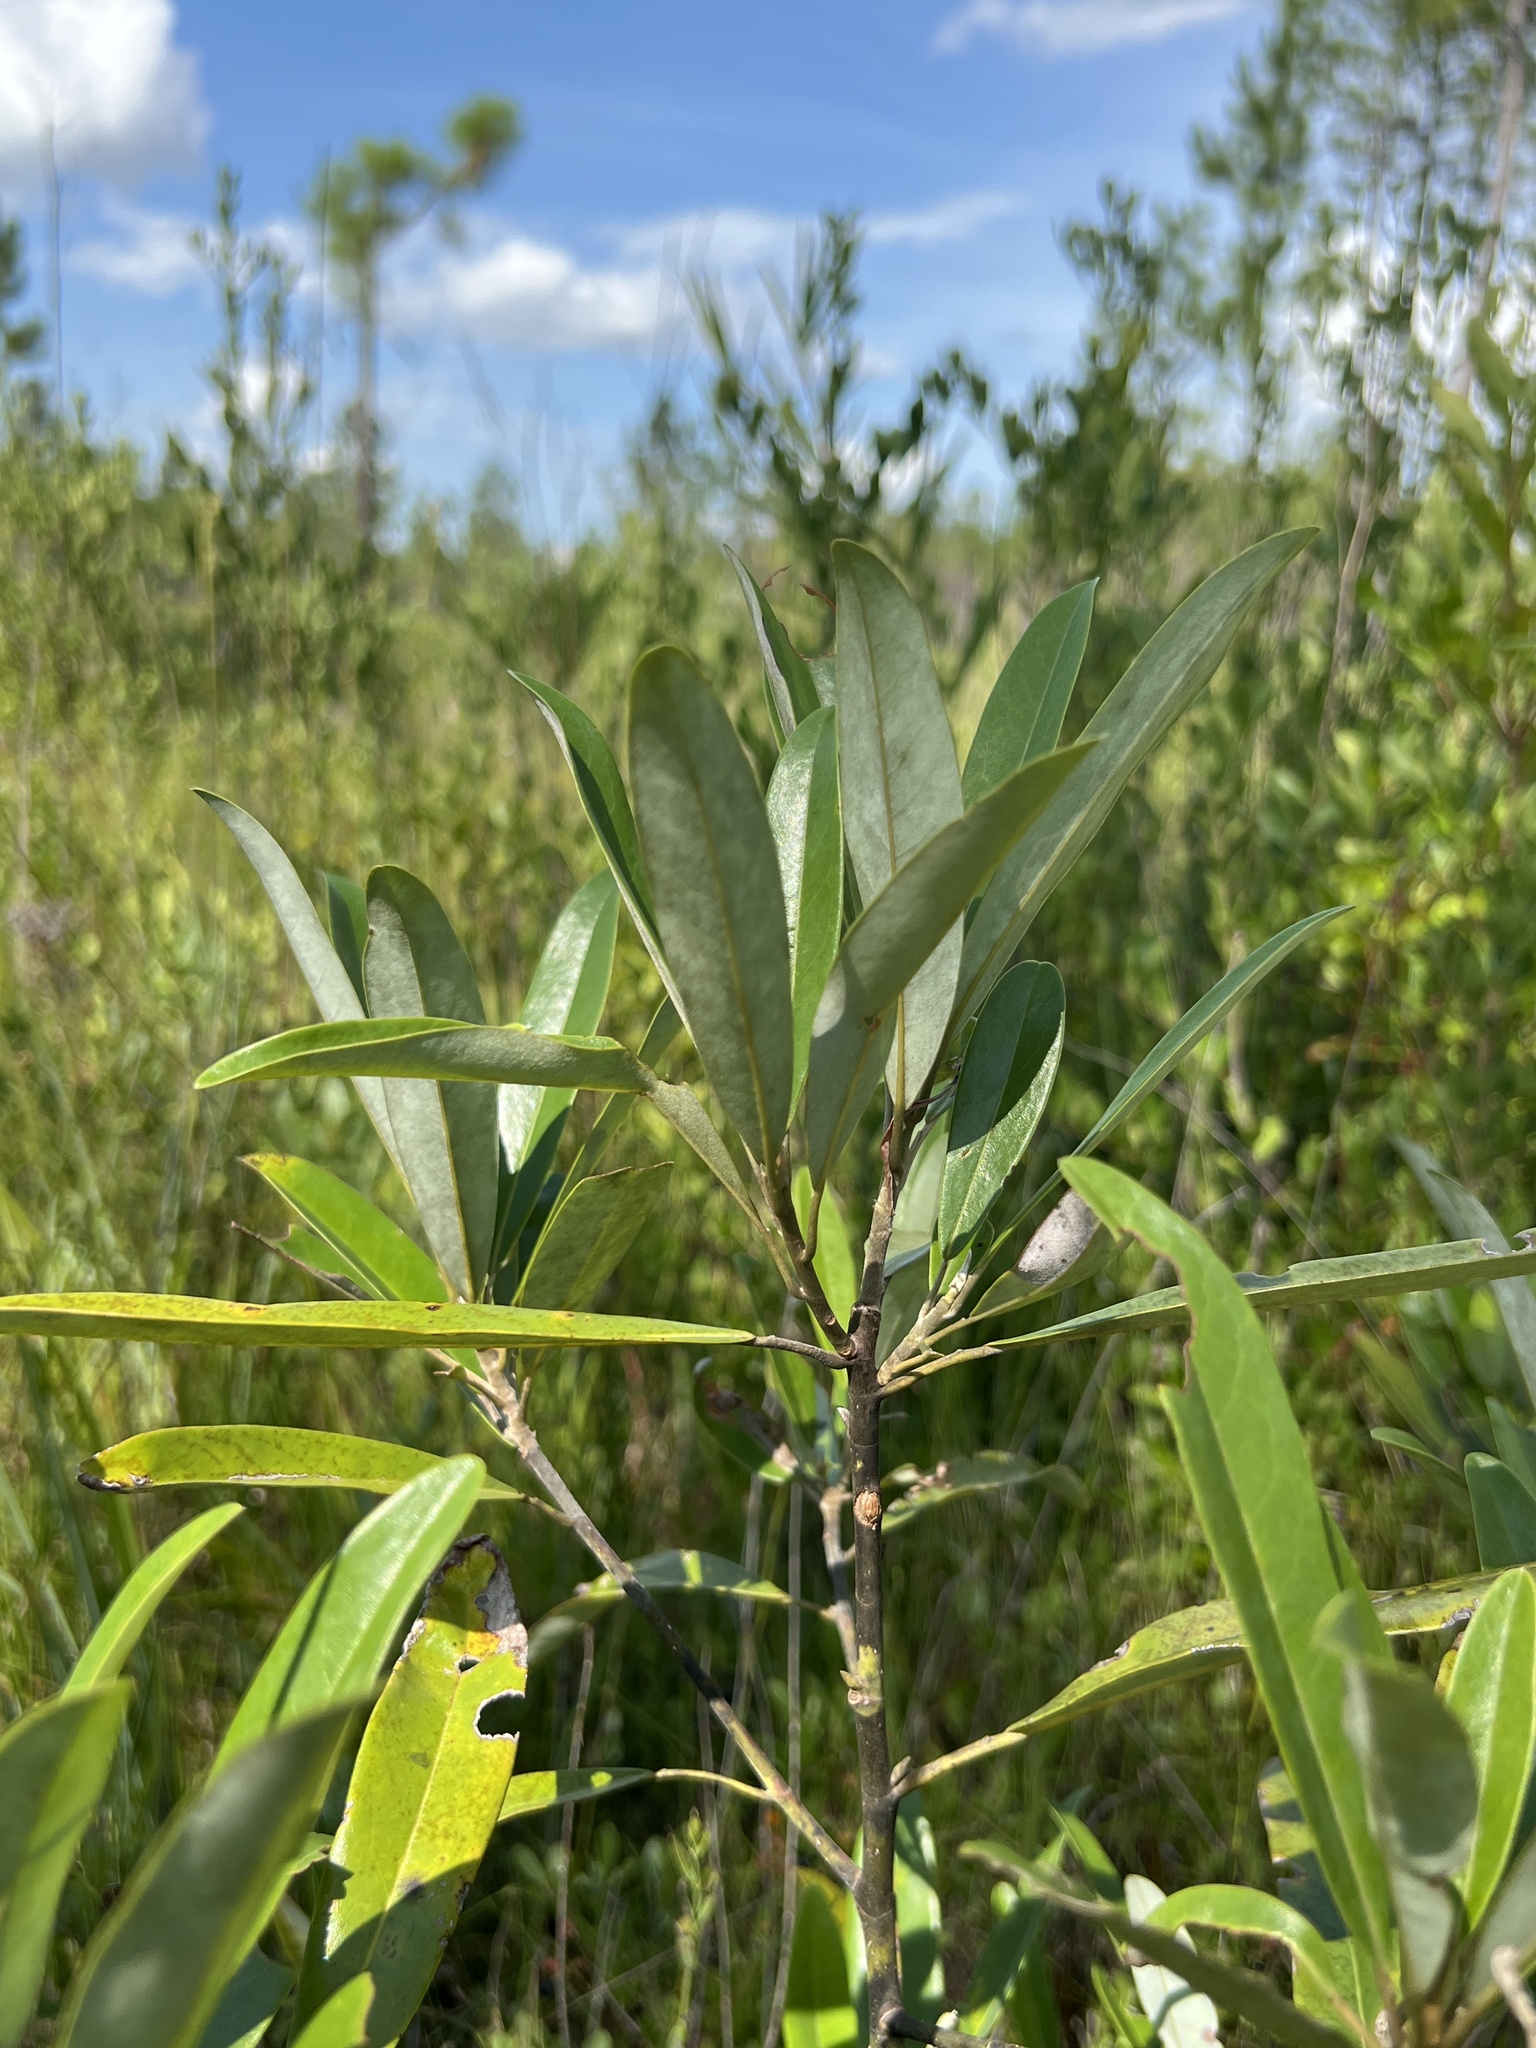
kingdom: Plantae
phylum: Tracheophyta
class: Magnoliopsida
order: Magnoliales
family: Magnoliaceae
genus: Magnolia
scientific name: Magnolia virginiana
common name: Swamp bay
